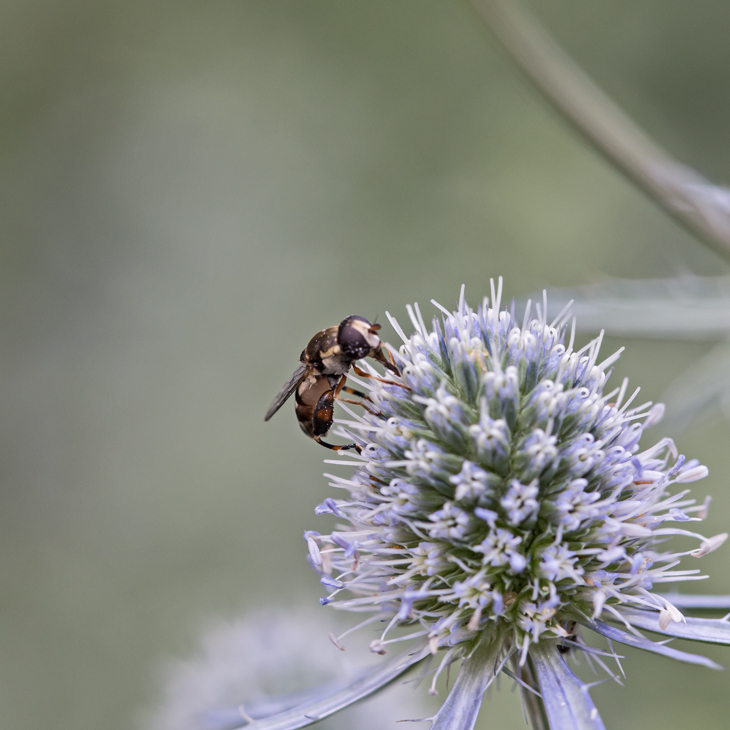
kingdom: Animalia
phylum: Arthropoda
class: Insecta
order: Diptera
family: Syrphidae
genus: Syritta
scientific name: Syritta pipiens
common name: Hover fly
